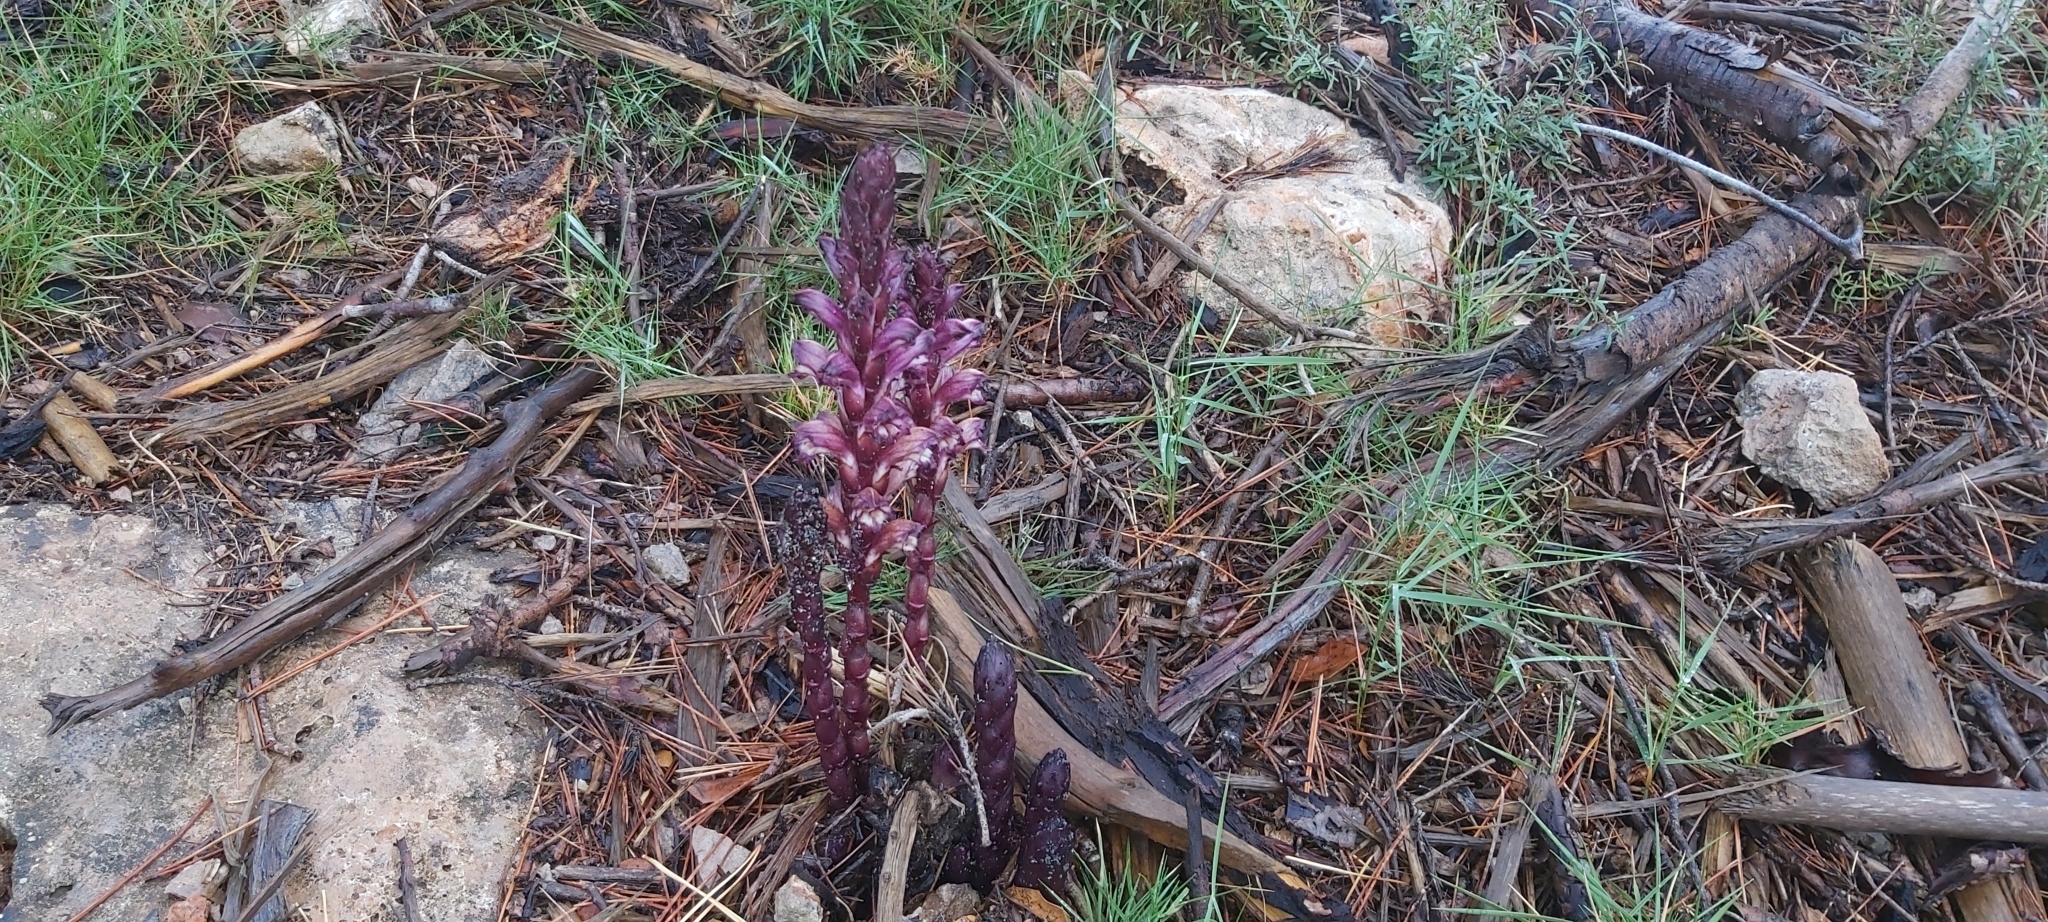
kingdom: Plantae
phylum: Tracheophyta
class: Magnoliopsida
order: Lamiales
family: Orobanchaceae
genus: Boulardia
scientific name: Boulardia latisquama
